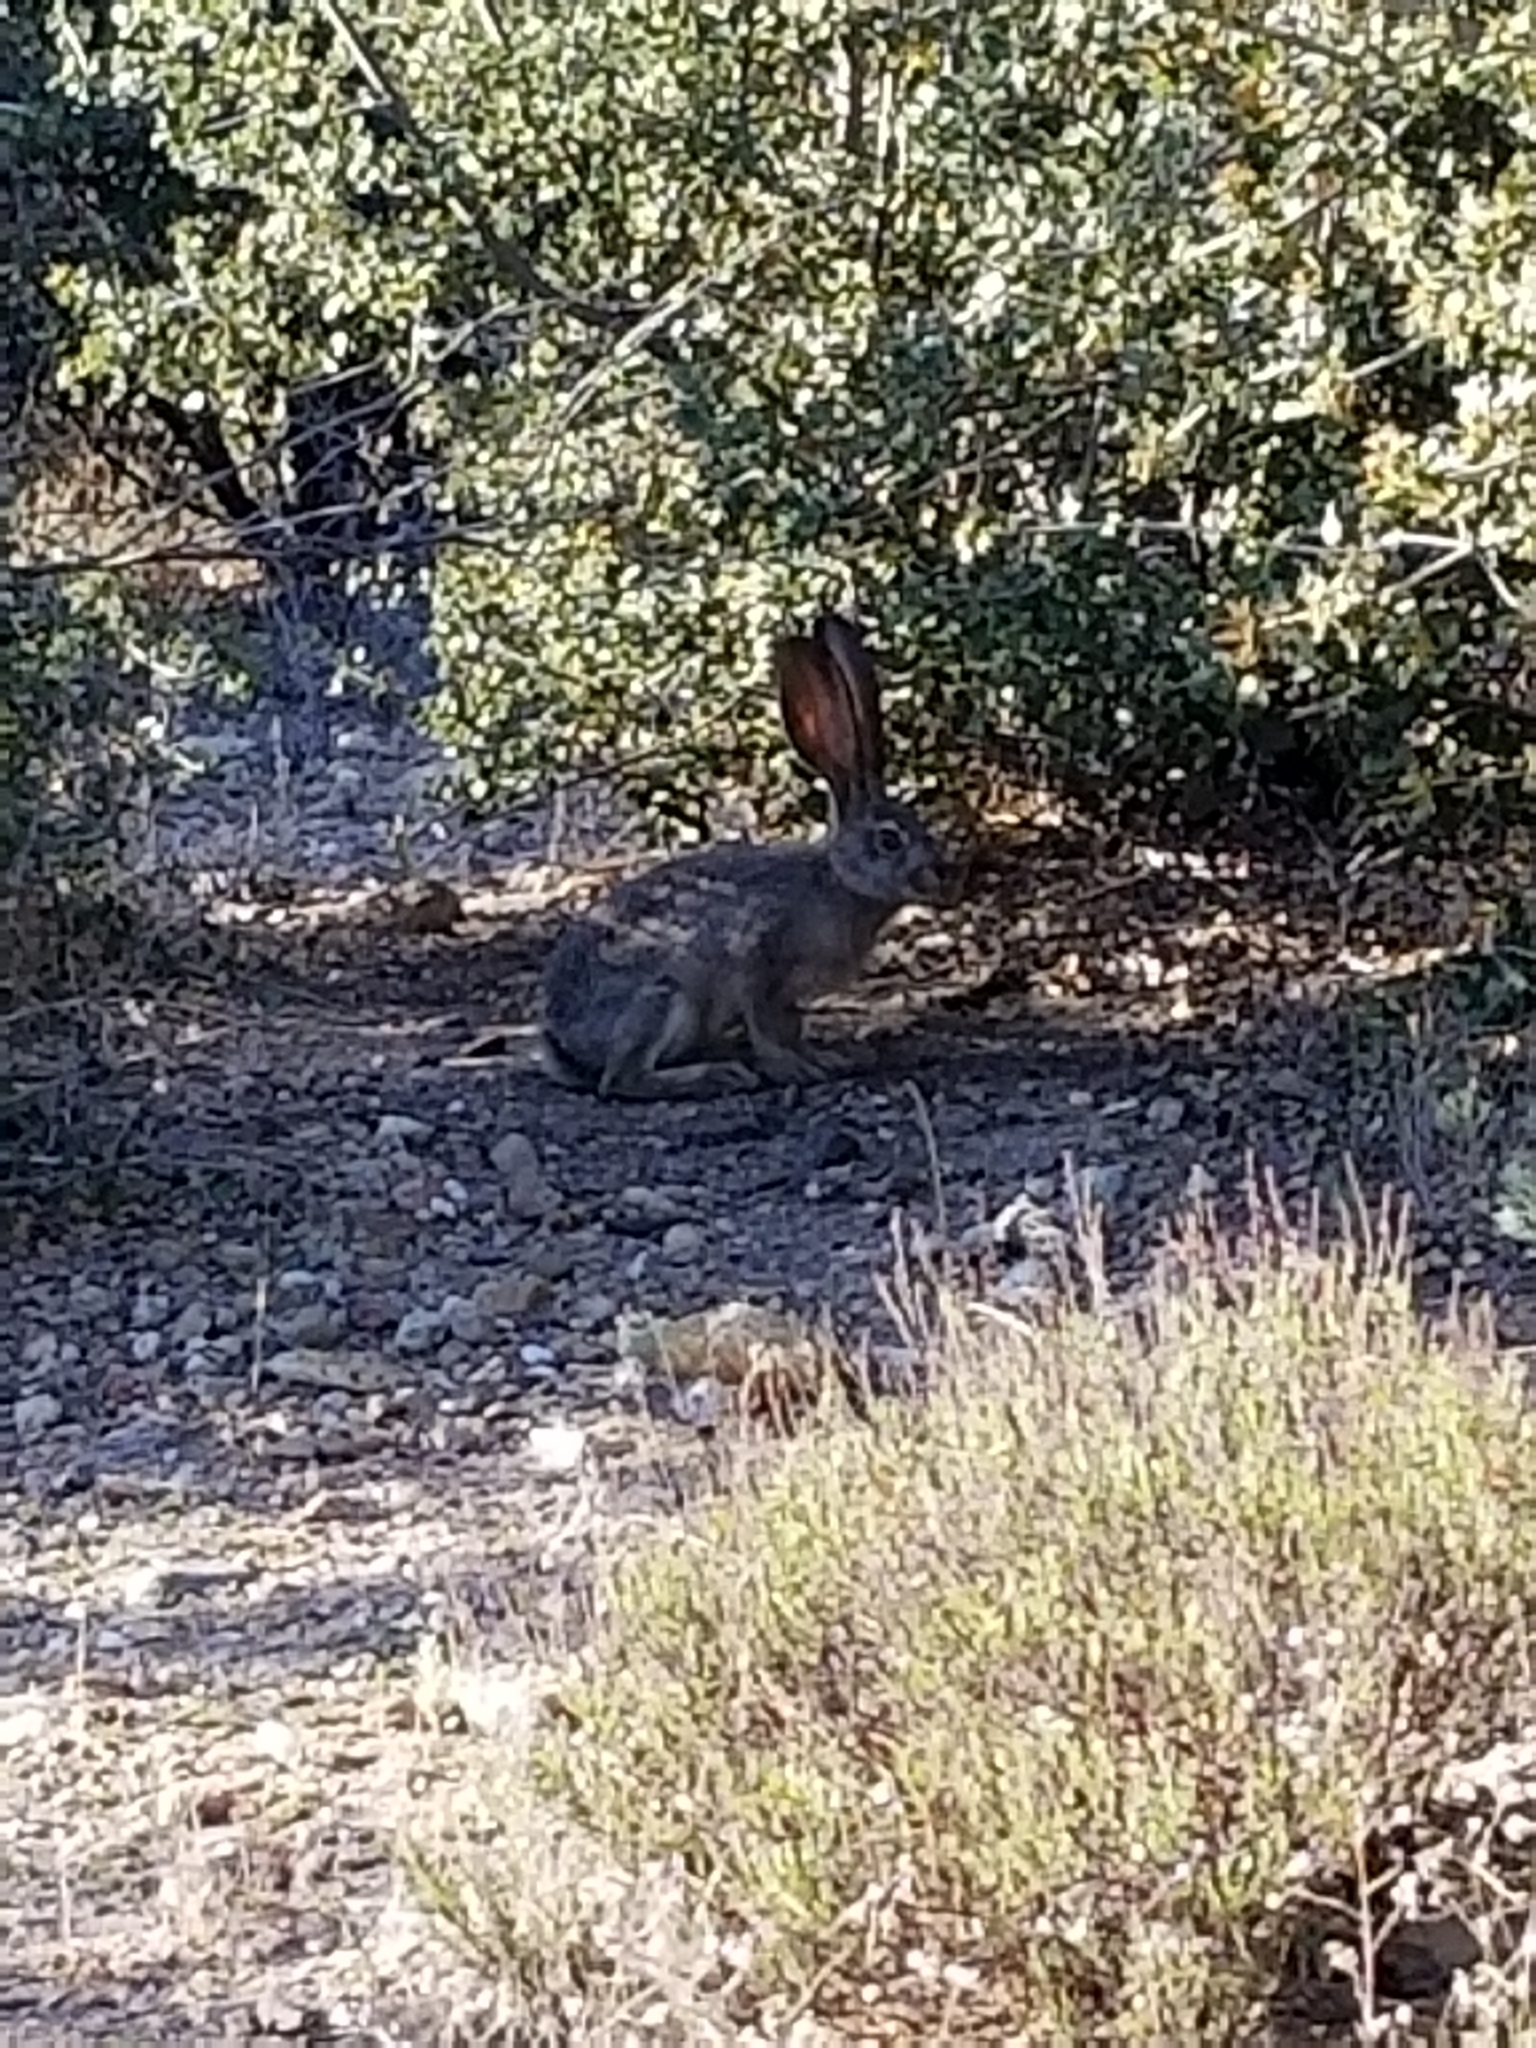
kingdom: Animalia
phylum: Chordata
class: Mammalia
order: Lagomorpha
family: Leporidae
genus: Lepus
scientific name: Lepus californicus
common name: Black-tailed jackrabbit
